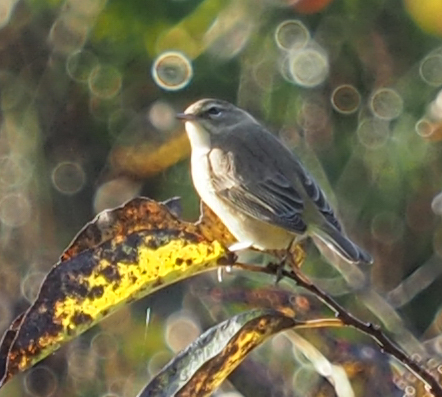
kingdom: Animalia
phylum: Chordata
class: Aves
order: Passeriformes
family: Parulidae
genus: Setophaga
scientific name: Setophaga palmarum
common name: Palm warbler
